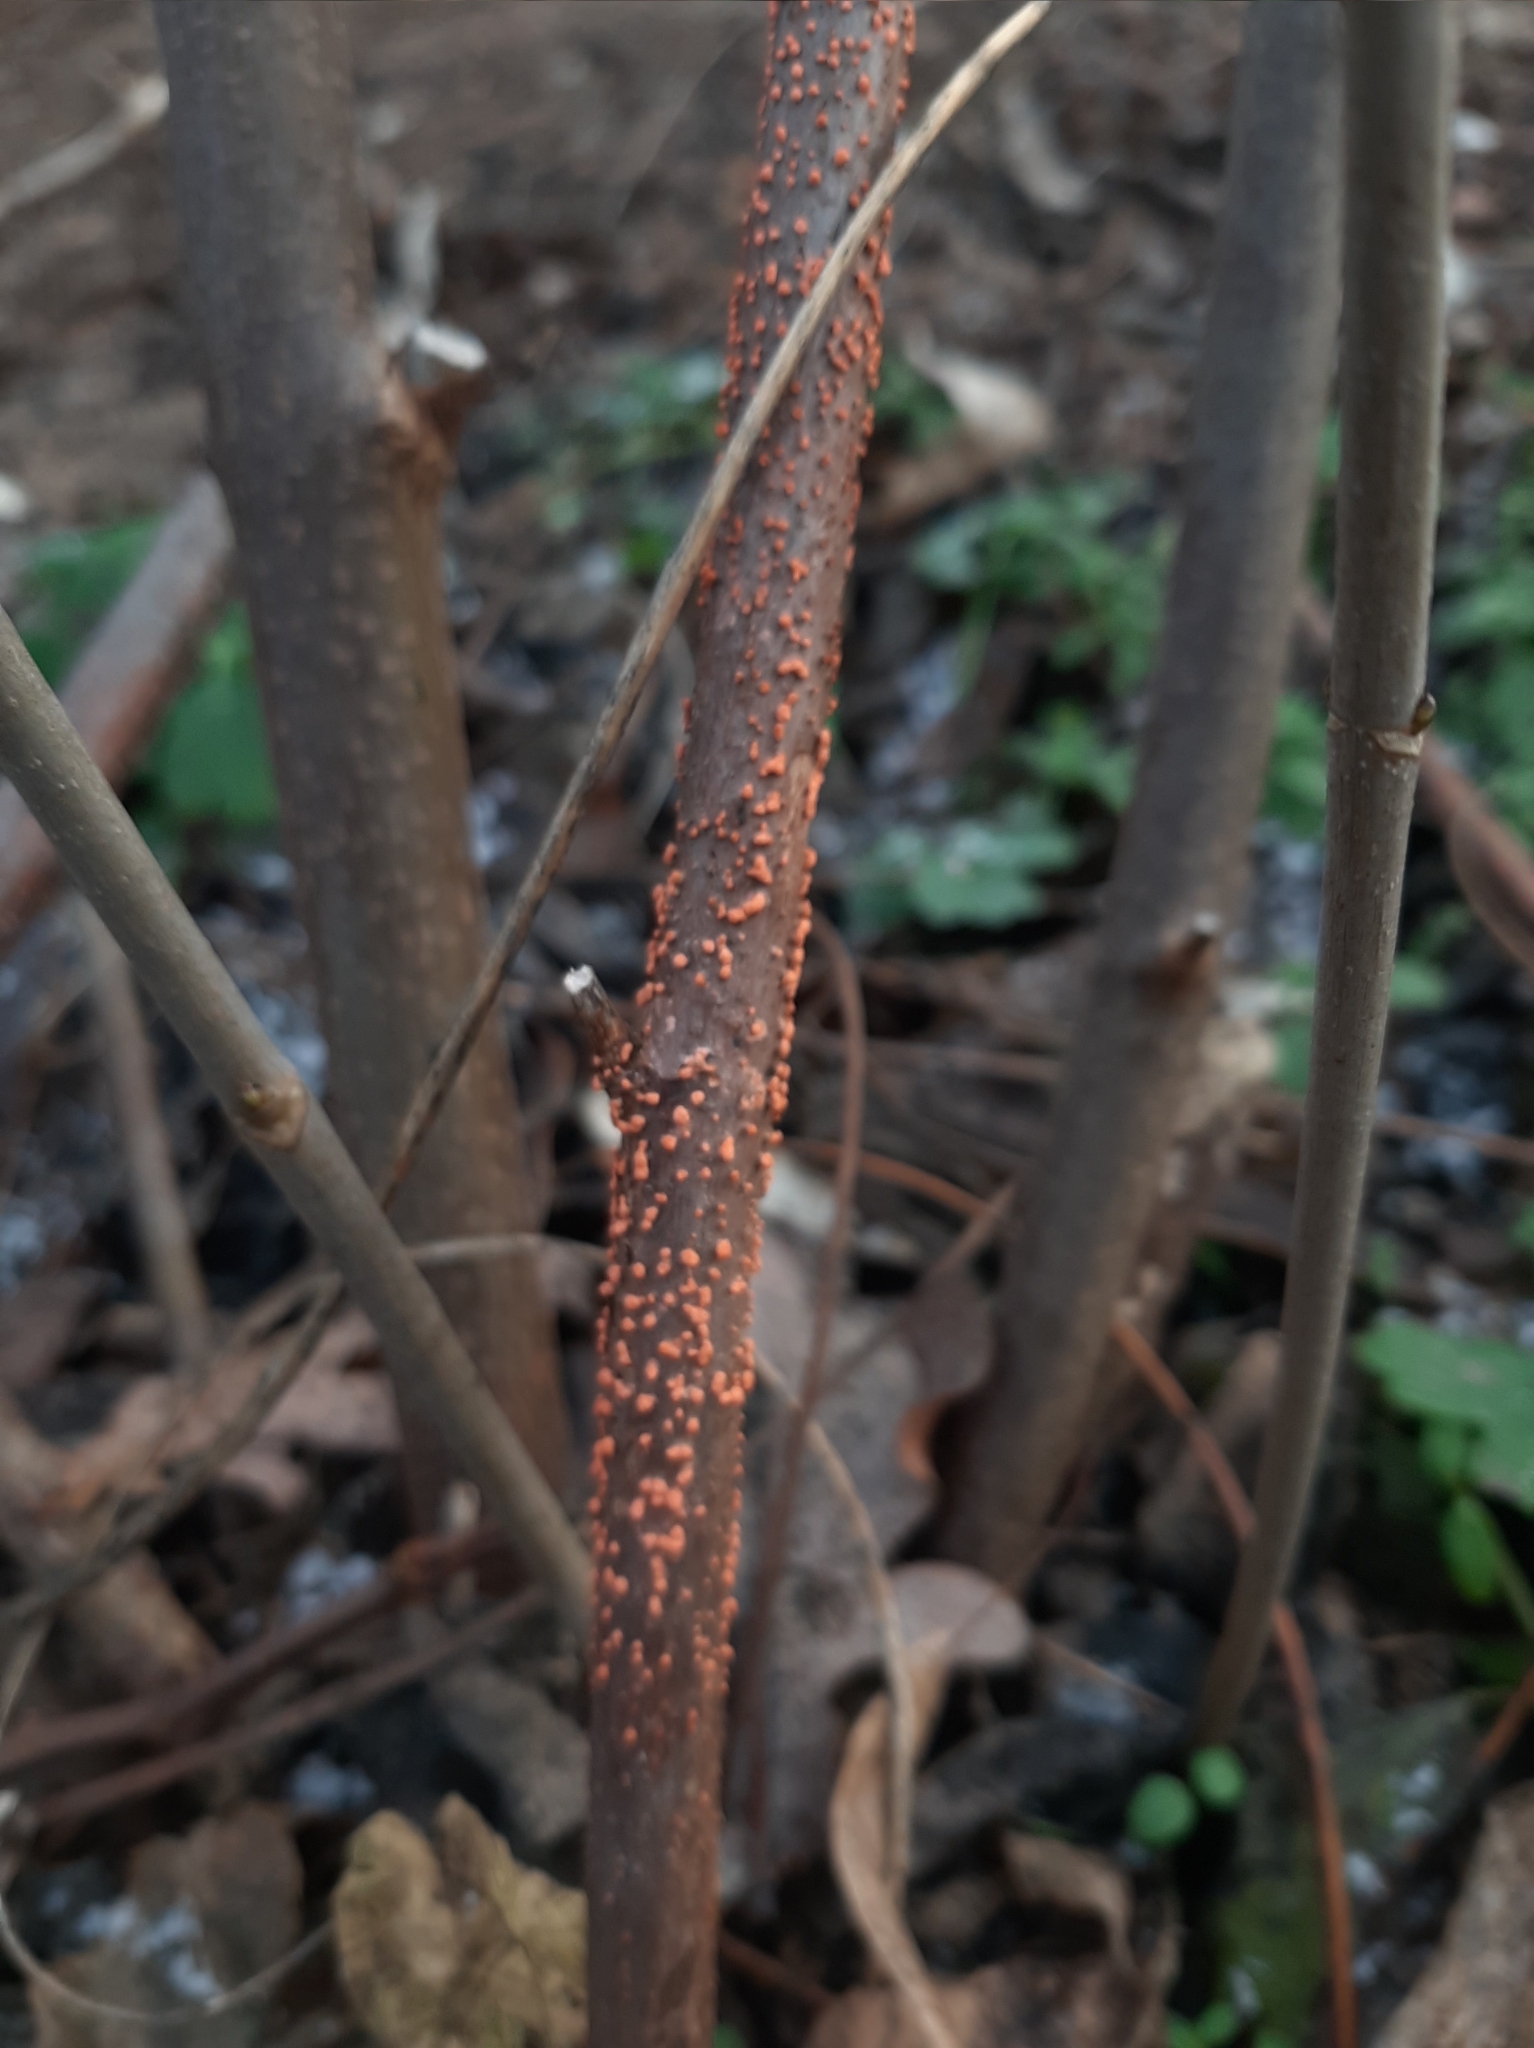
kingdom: Fungi
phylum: Ascomycota
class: Sordariomycetes
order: Hypocreales
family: Nectriaceae
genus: Nectria
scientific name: Nectria cinnabarina
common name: Coral spot
